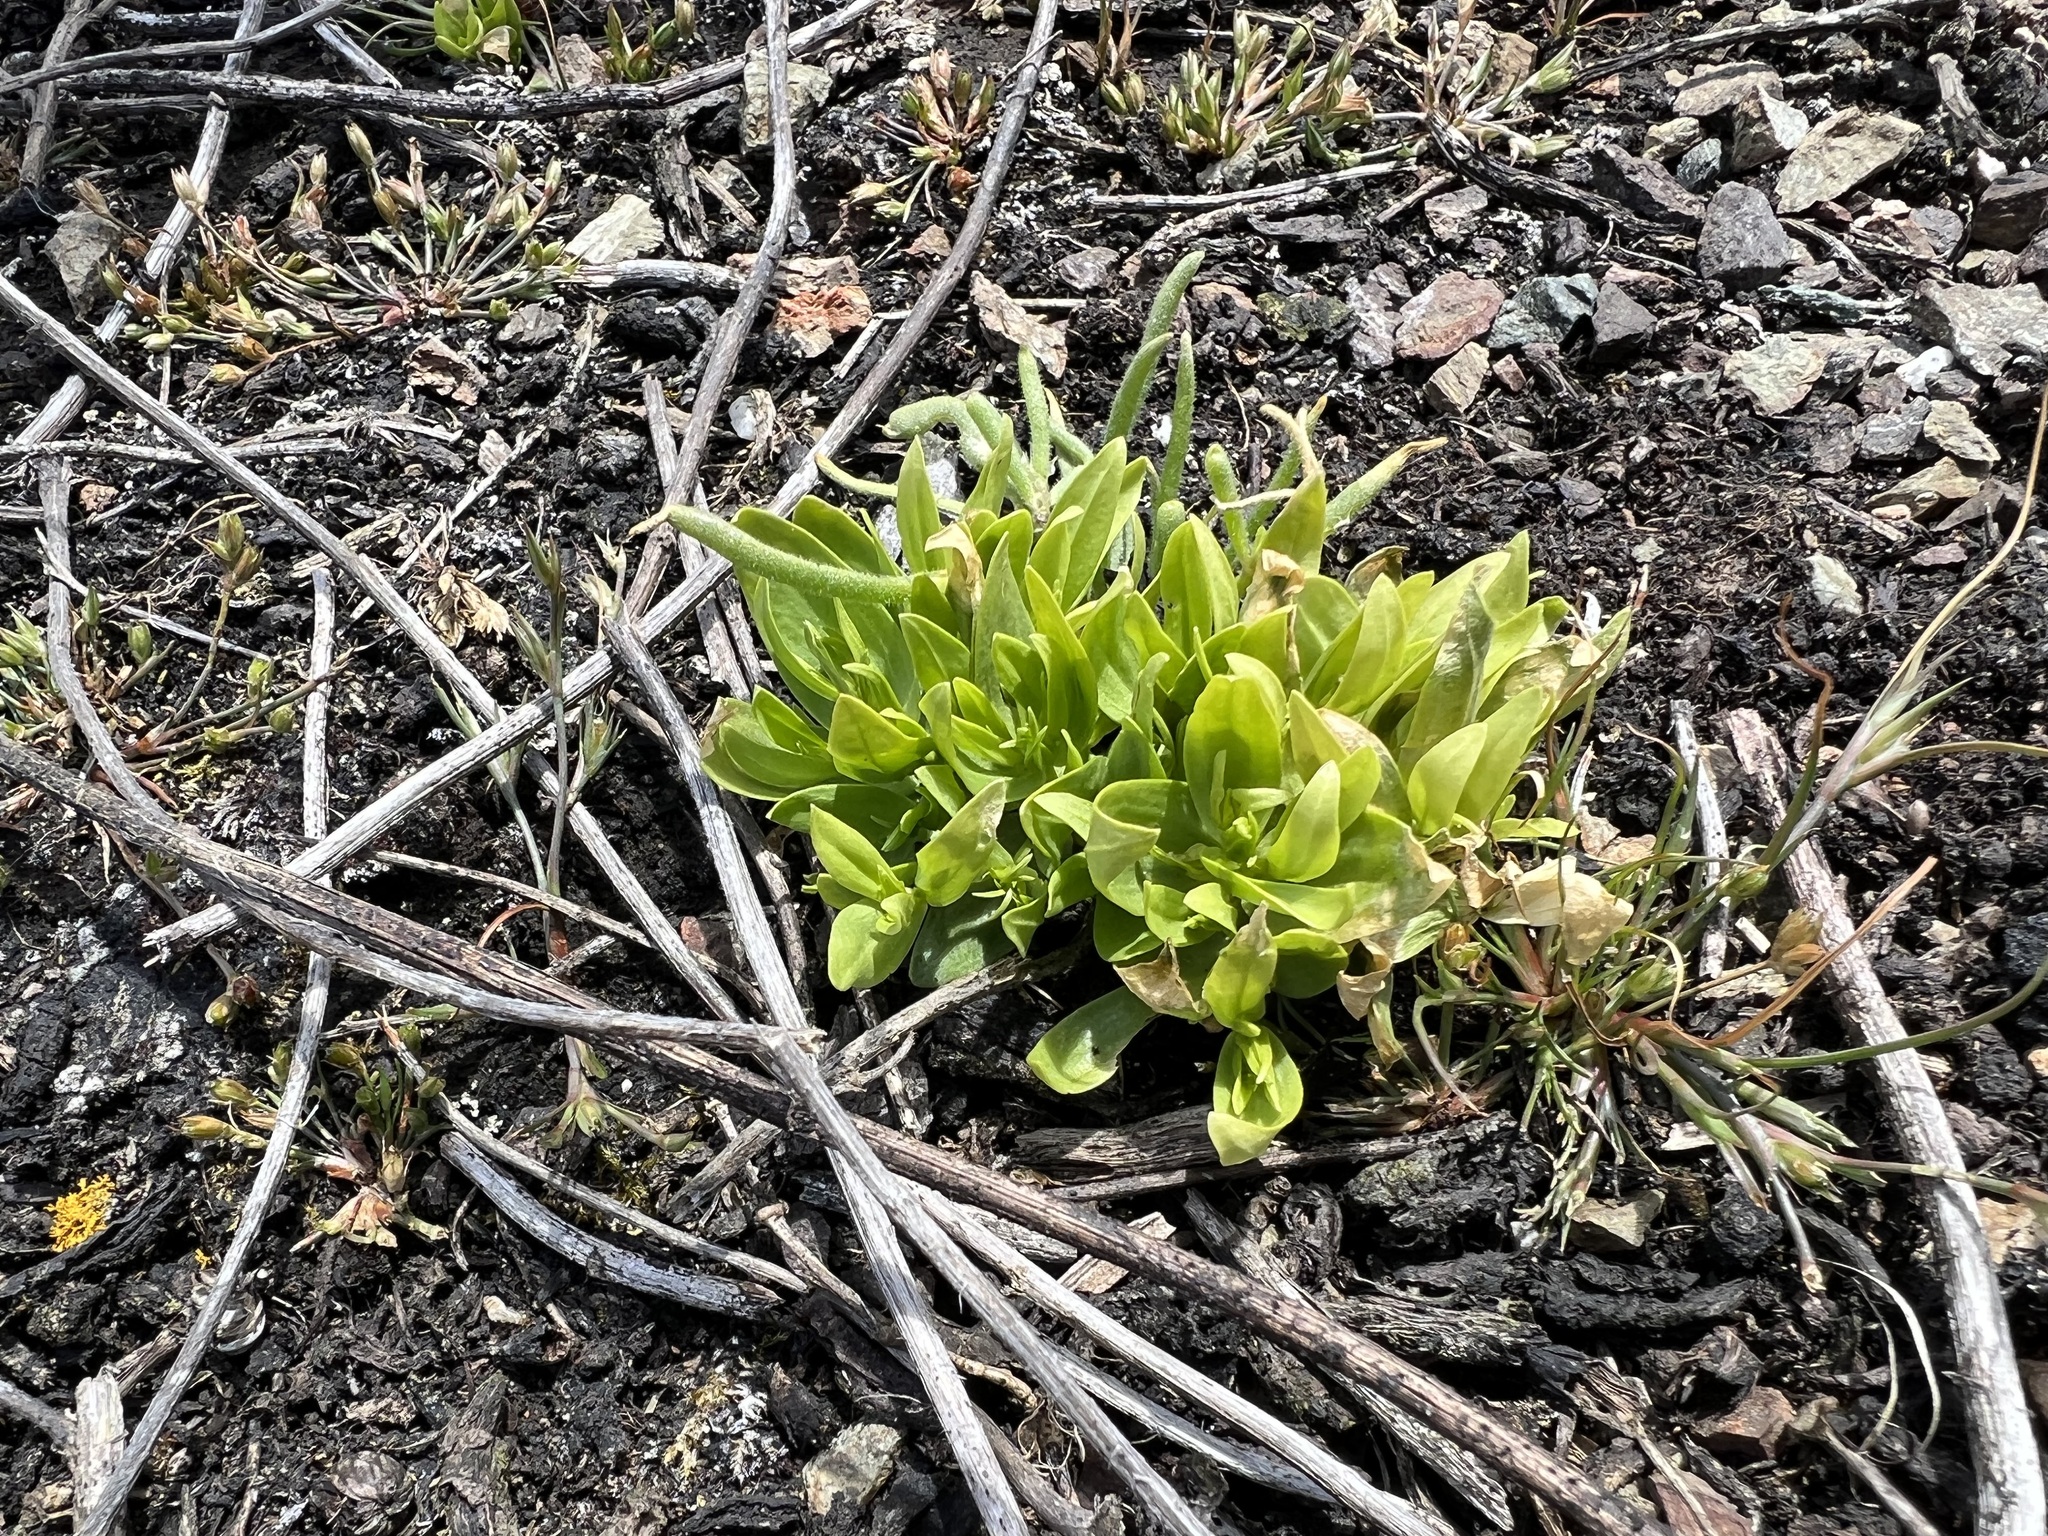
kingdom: Plantae
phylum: Tracheophyta
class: Magnoliopsida
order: Asterales
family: Asteraceae
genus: Grindelia
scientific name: Grindelia hirsutula
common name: Hairy gumweed
